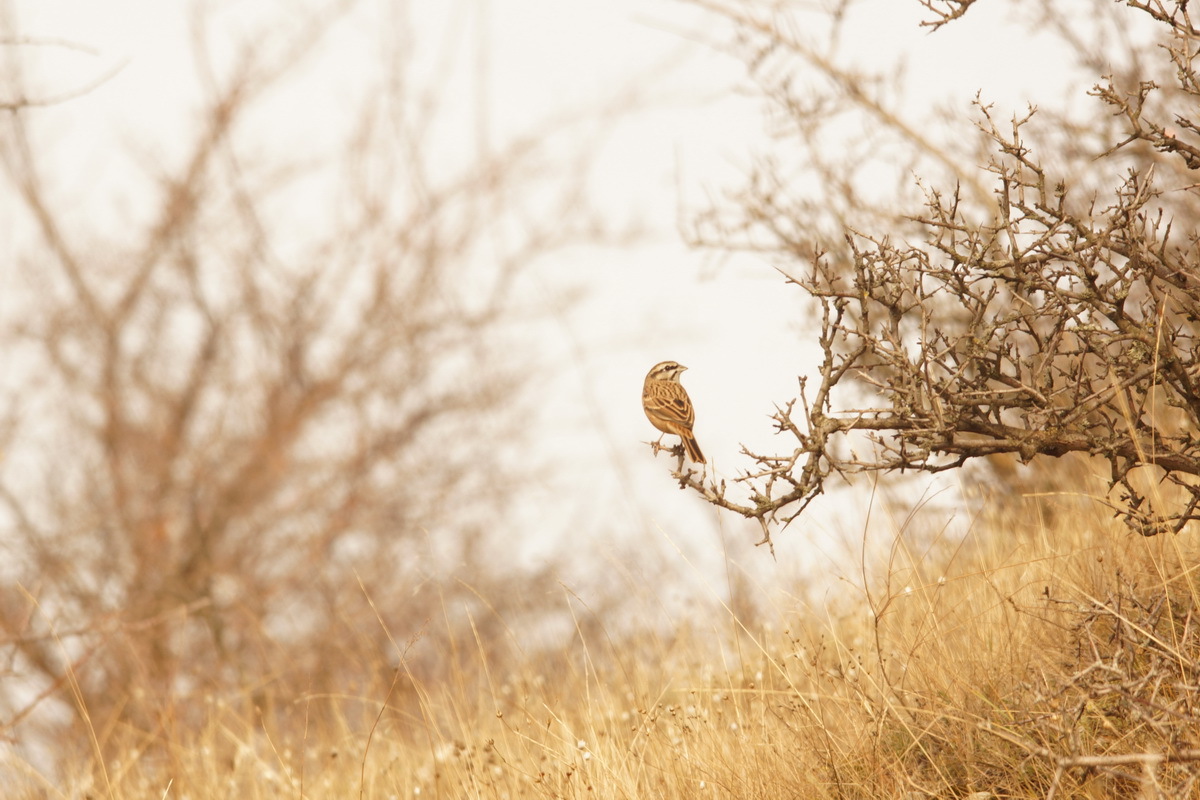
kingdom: Animalia
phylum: Chordata
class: Aves
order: Passeriformes
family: Emberizidae
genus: Emberiza
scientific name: Emberiza cia
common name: Rock bunting
